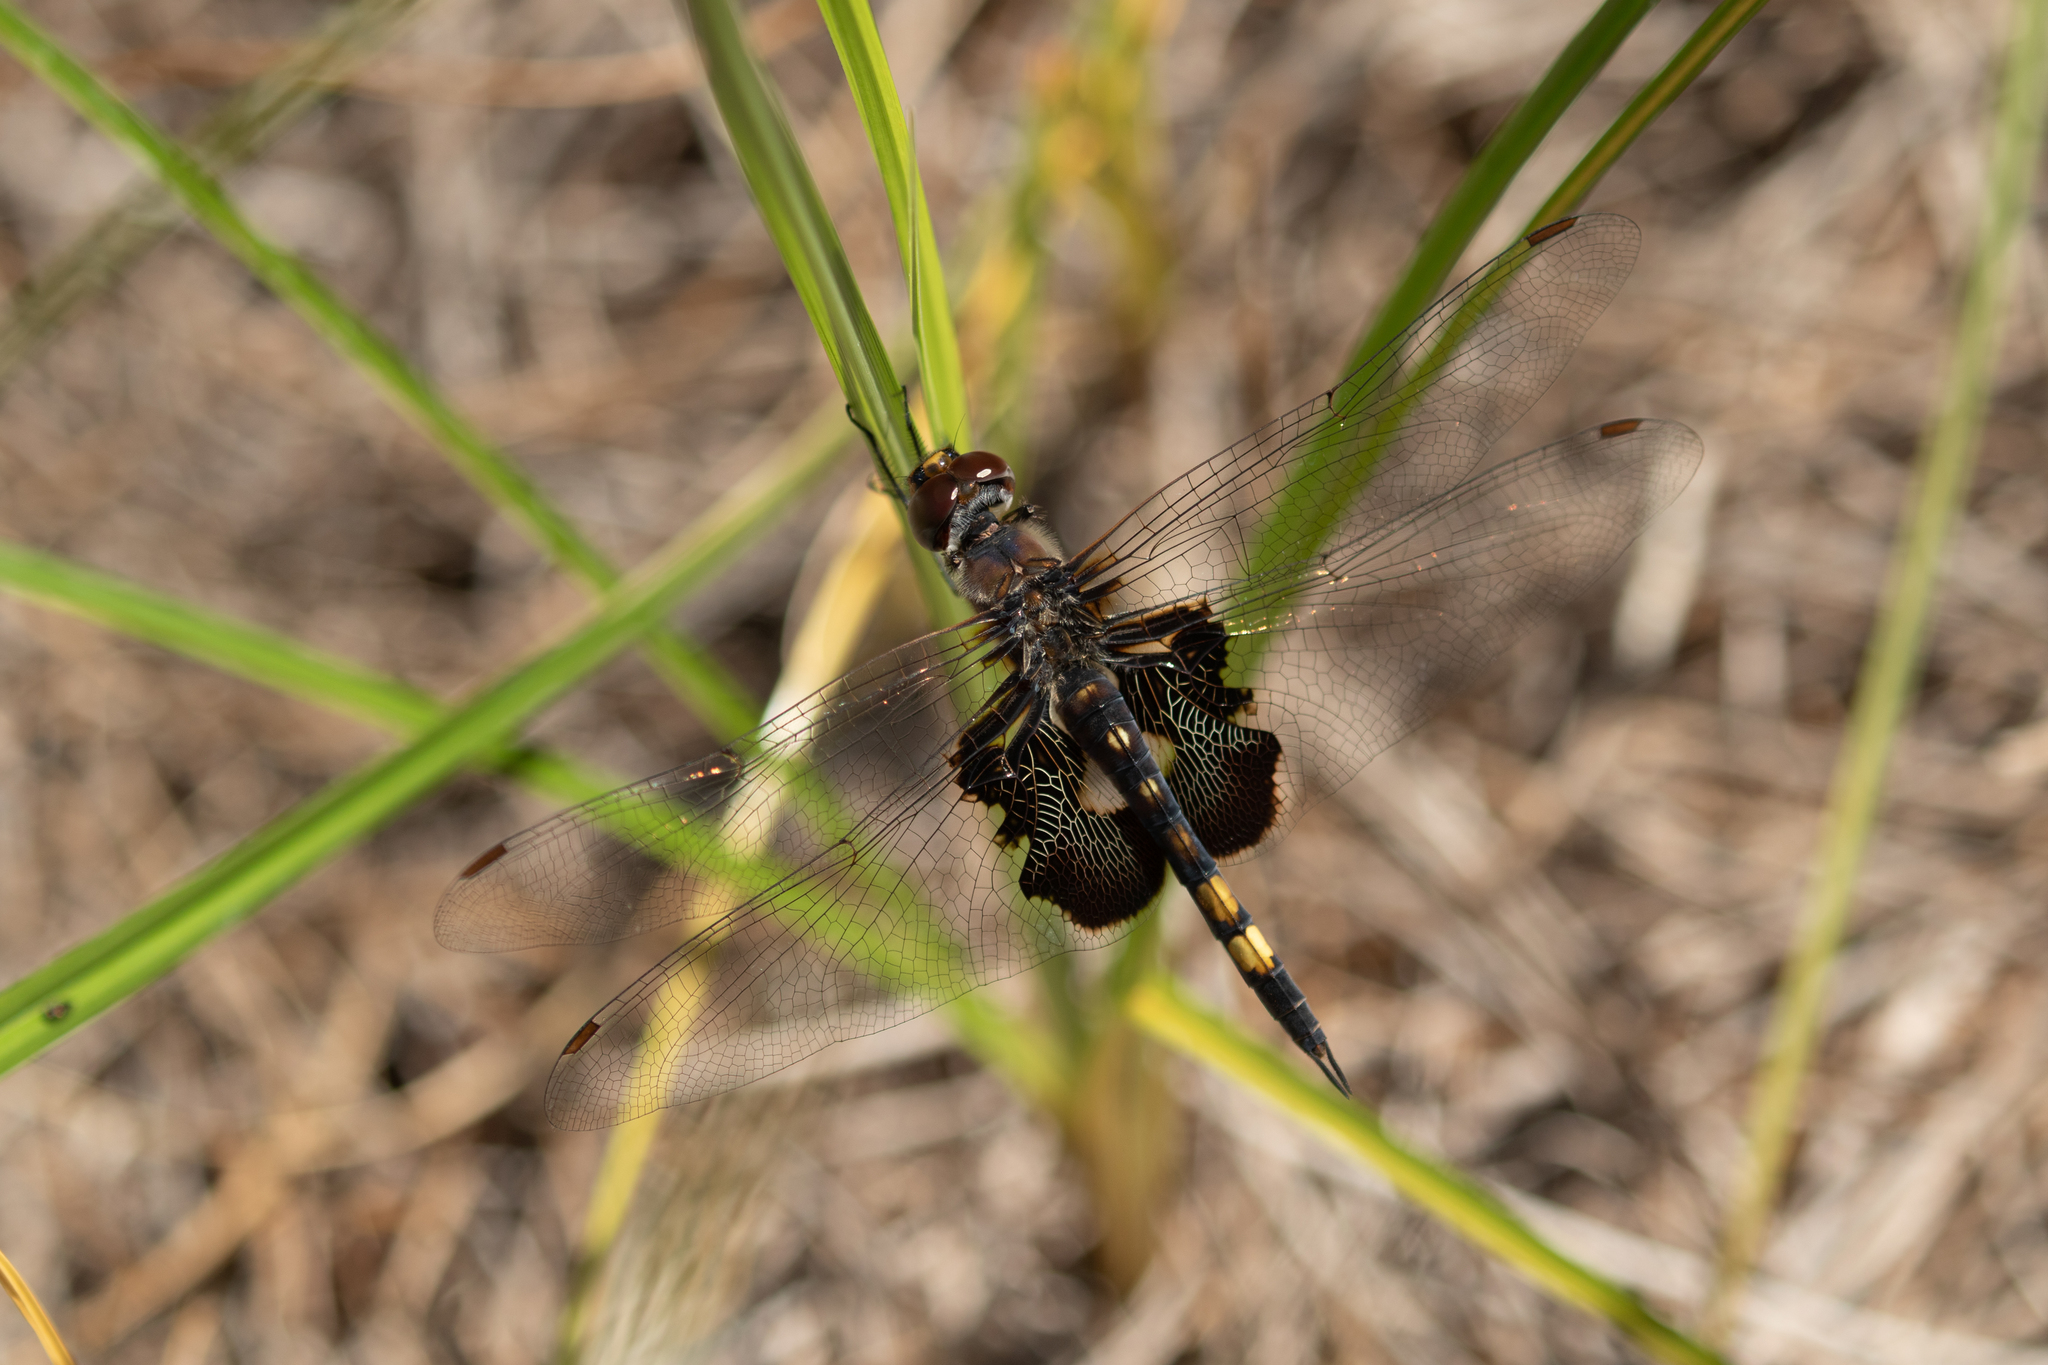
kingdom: Animalia
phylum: Arthropoda
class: Insecta
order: Odonata
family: Libellulidae
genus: Tramea
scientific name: Tramea lacerata
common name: Black saddlebags
